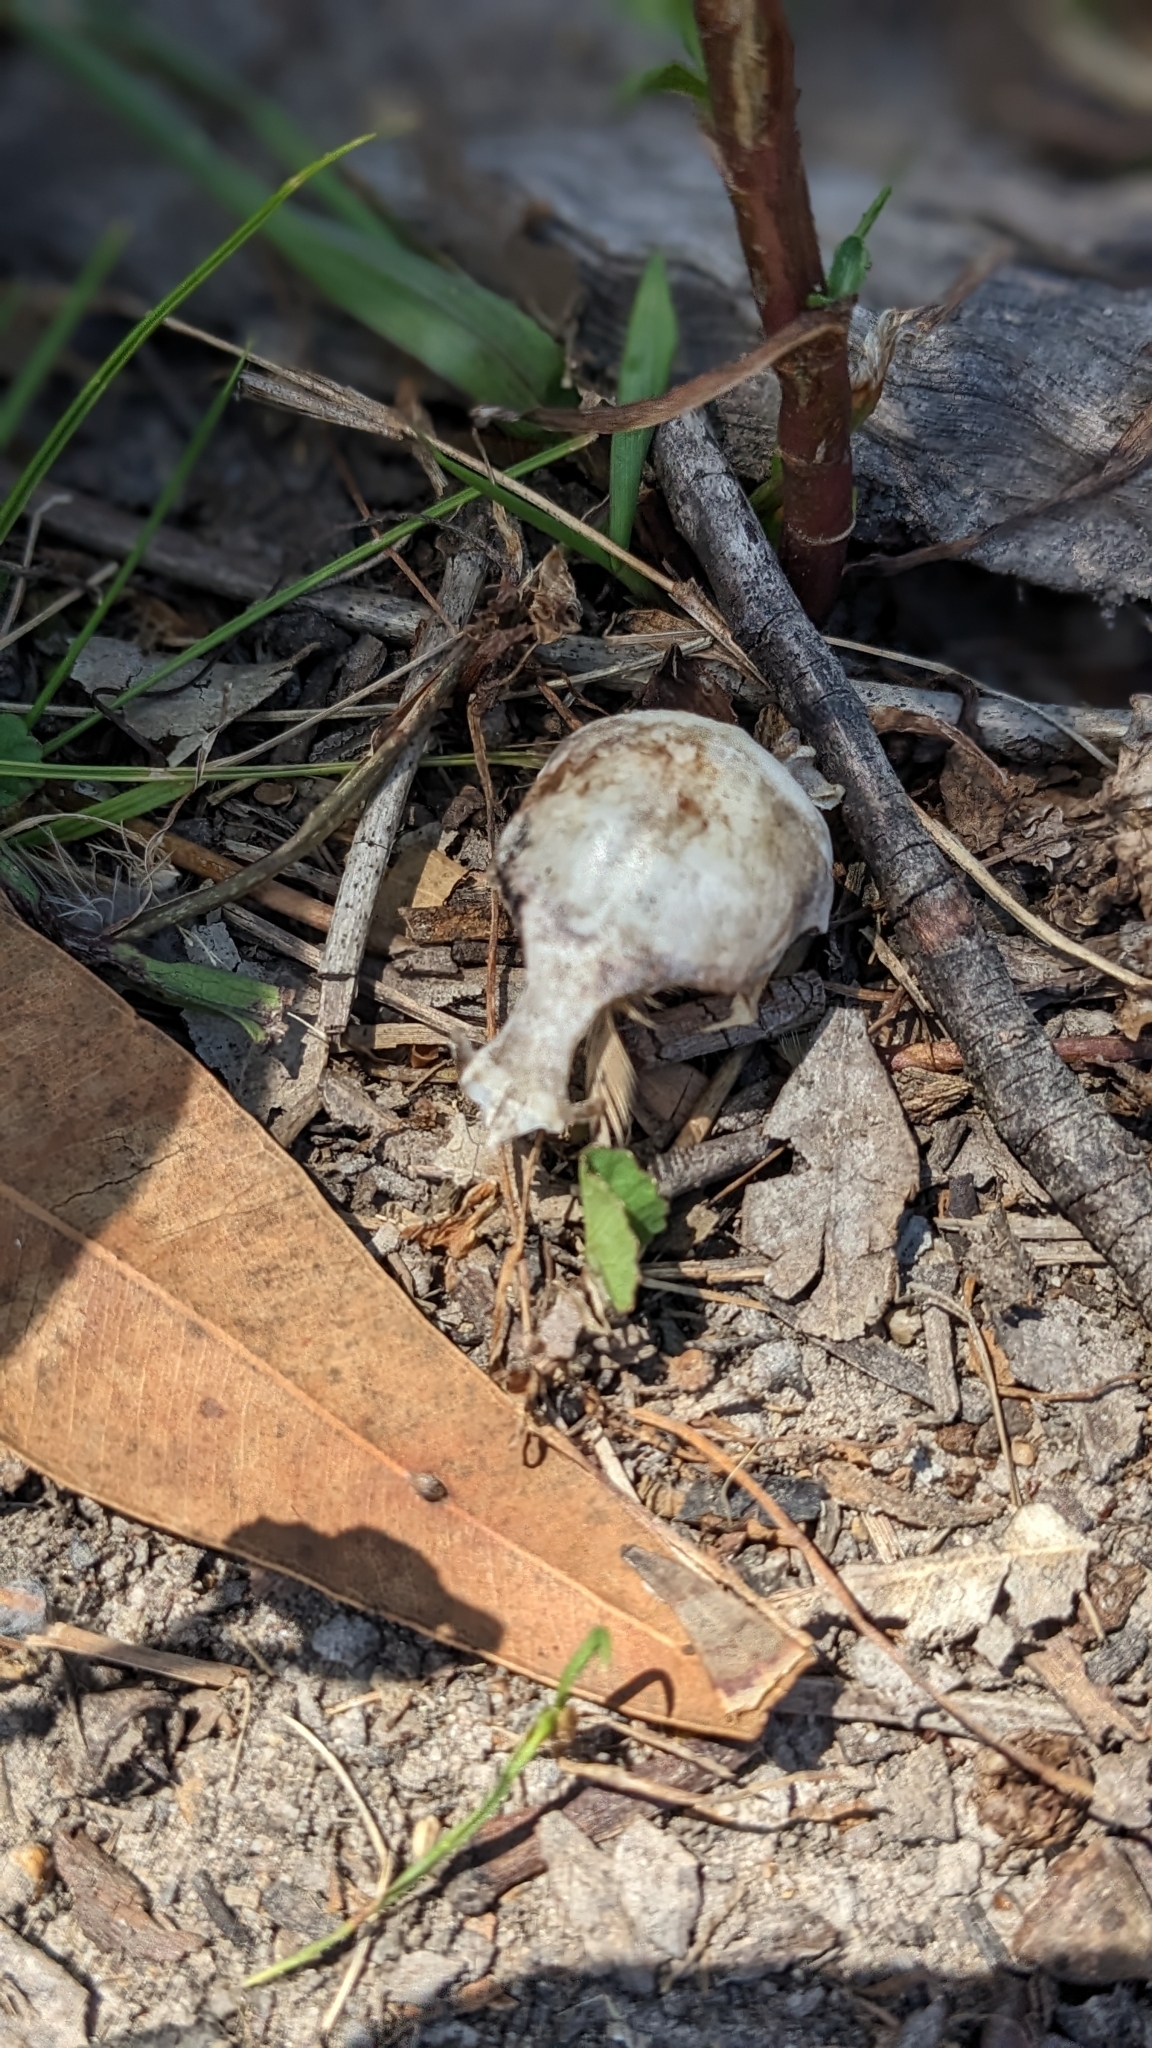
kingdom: Animalia
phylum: Chordata
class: Aves
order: Galliformes
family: Phasianidae
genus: Synoicus
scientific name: Synoicus ypsilophorus
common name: Brown quail
